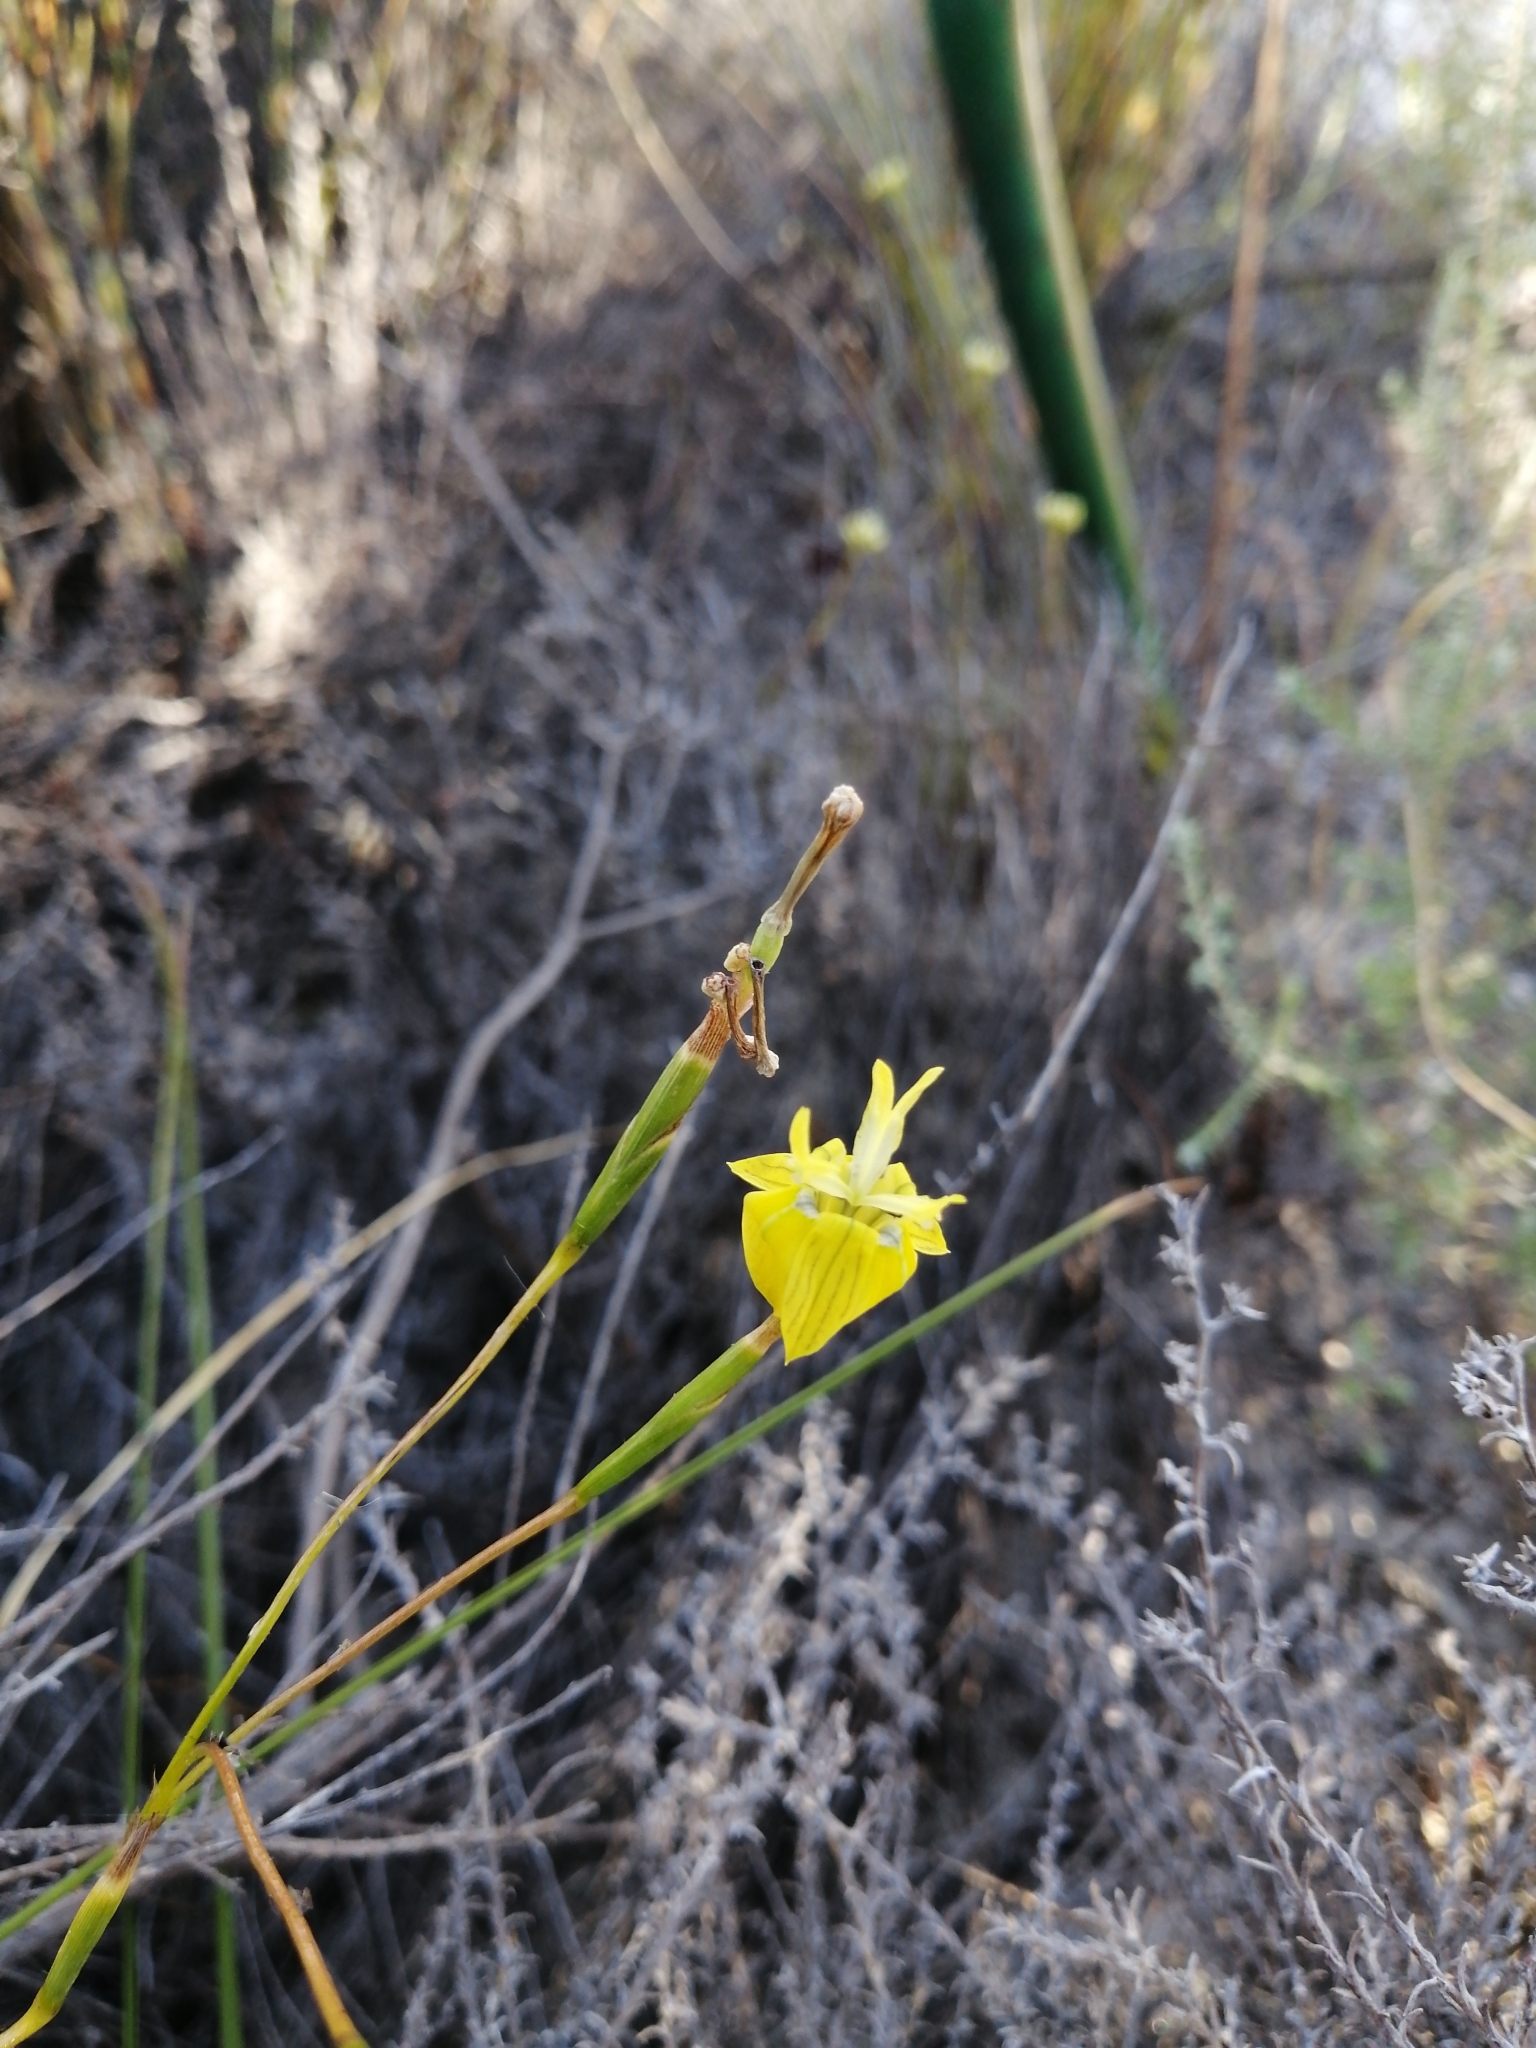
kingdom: Plantae
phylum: Tracheophyta
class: Liliopsida
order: Asparagales
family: Iridaceae
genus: Moraea
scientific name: Moraea inconspicua
